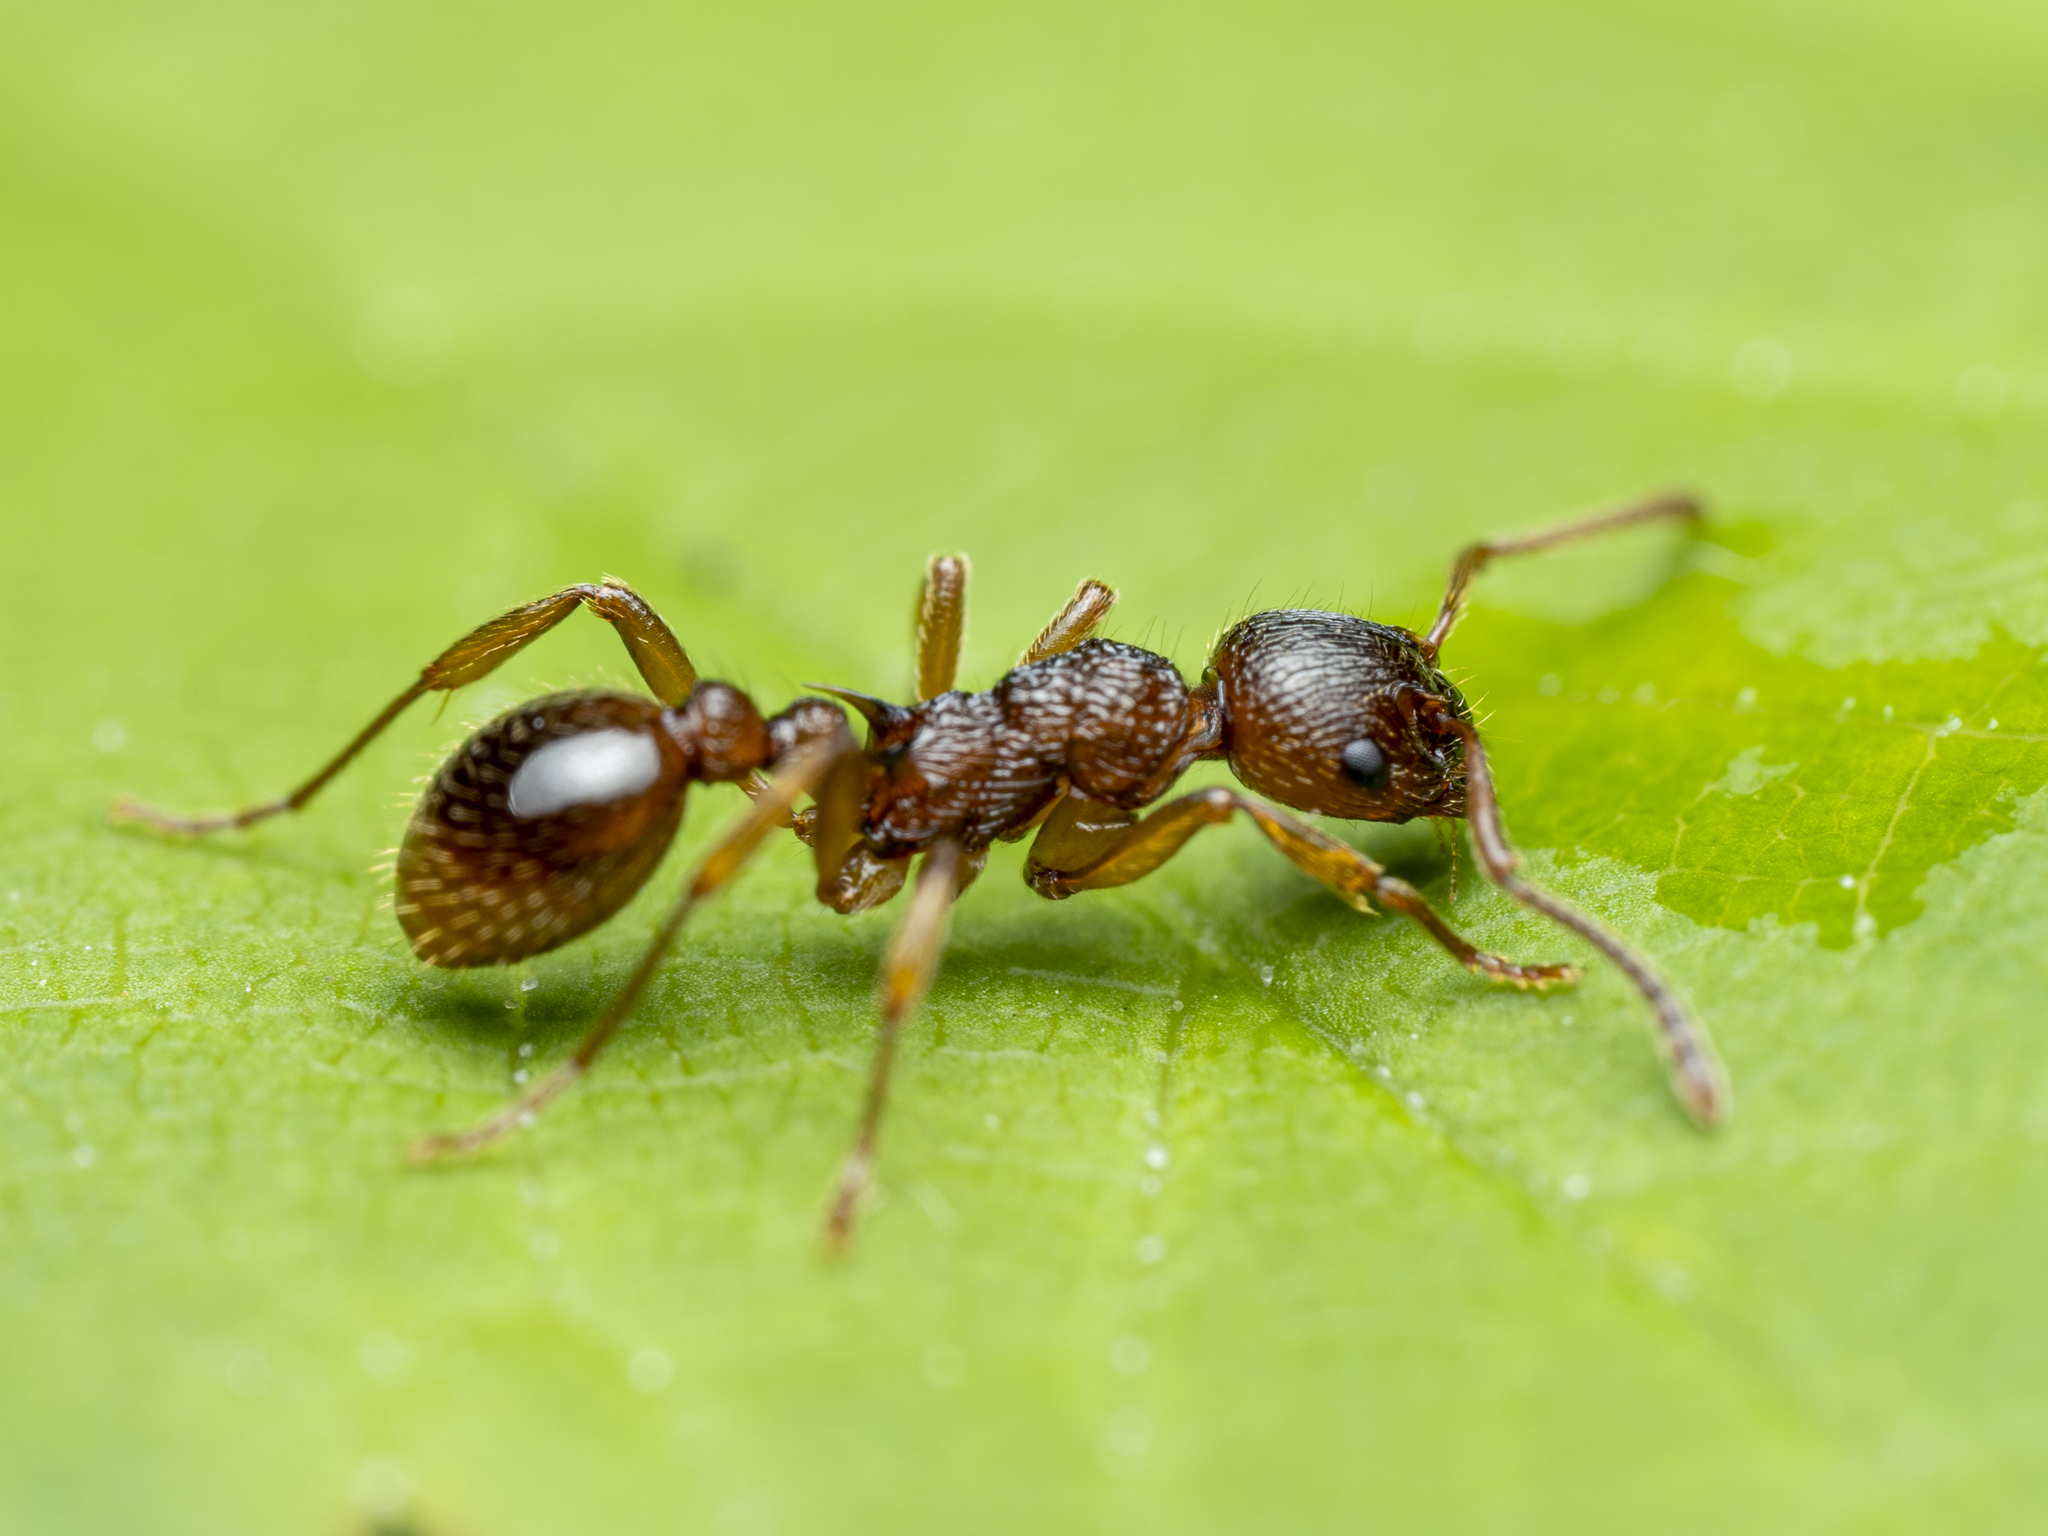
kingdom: Animalia
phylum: Arthropoda
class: Insecta
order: Hymenoptera
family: Formicidae
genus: Myrmica
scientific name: Myrmica ruginodis
